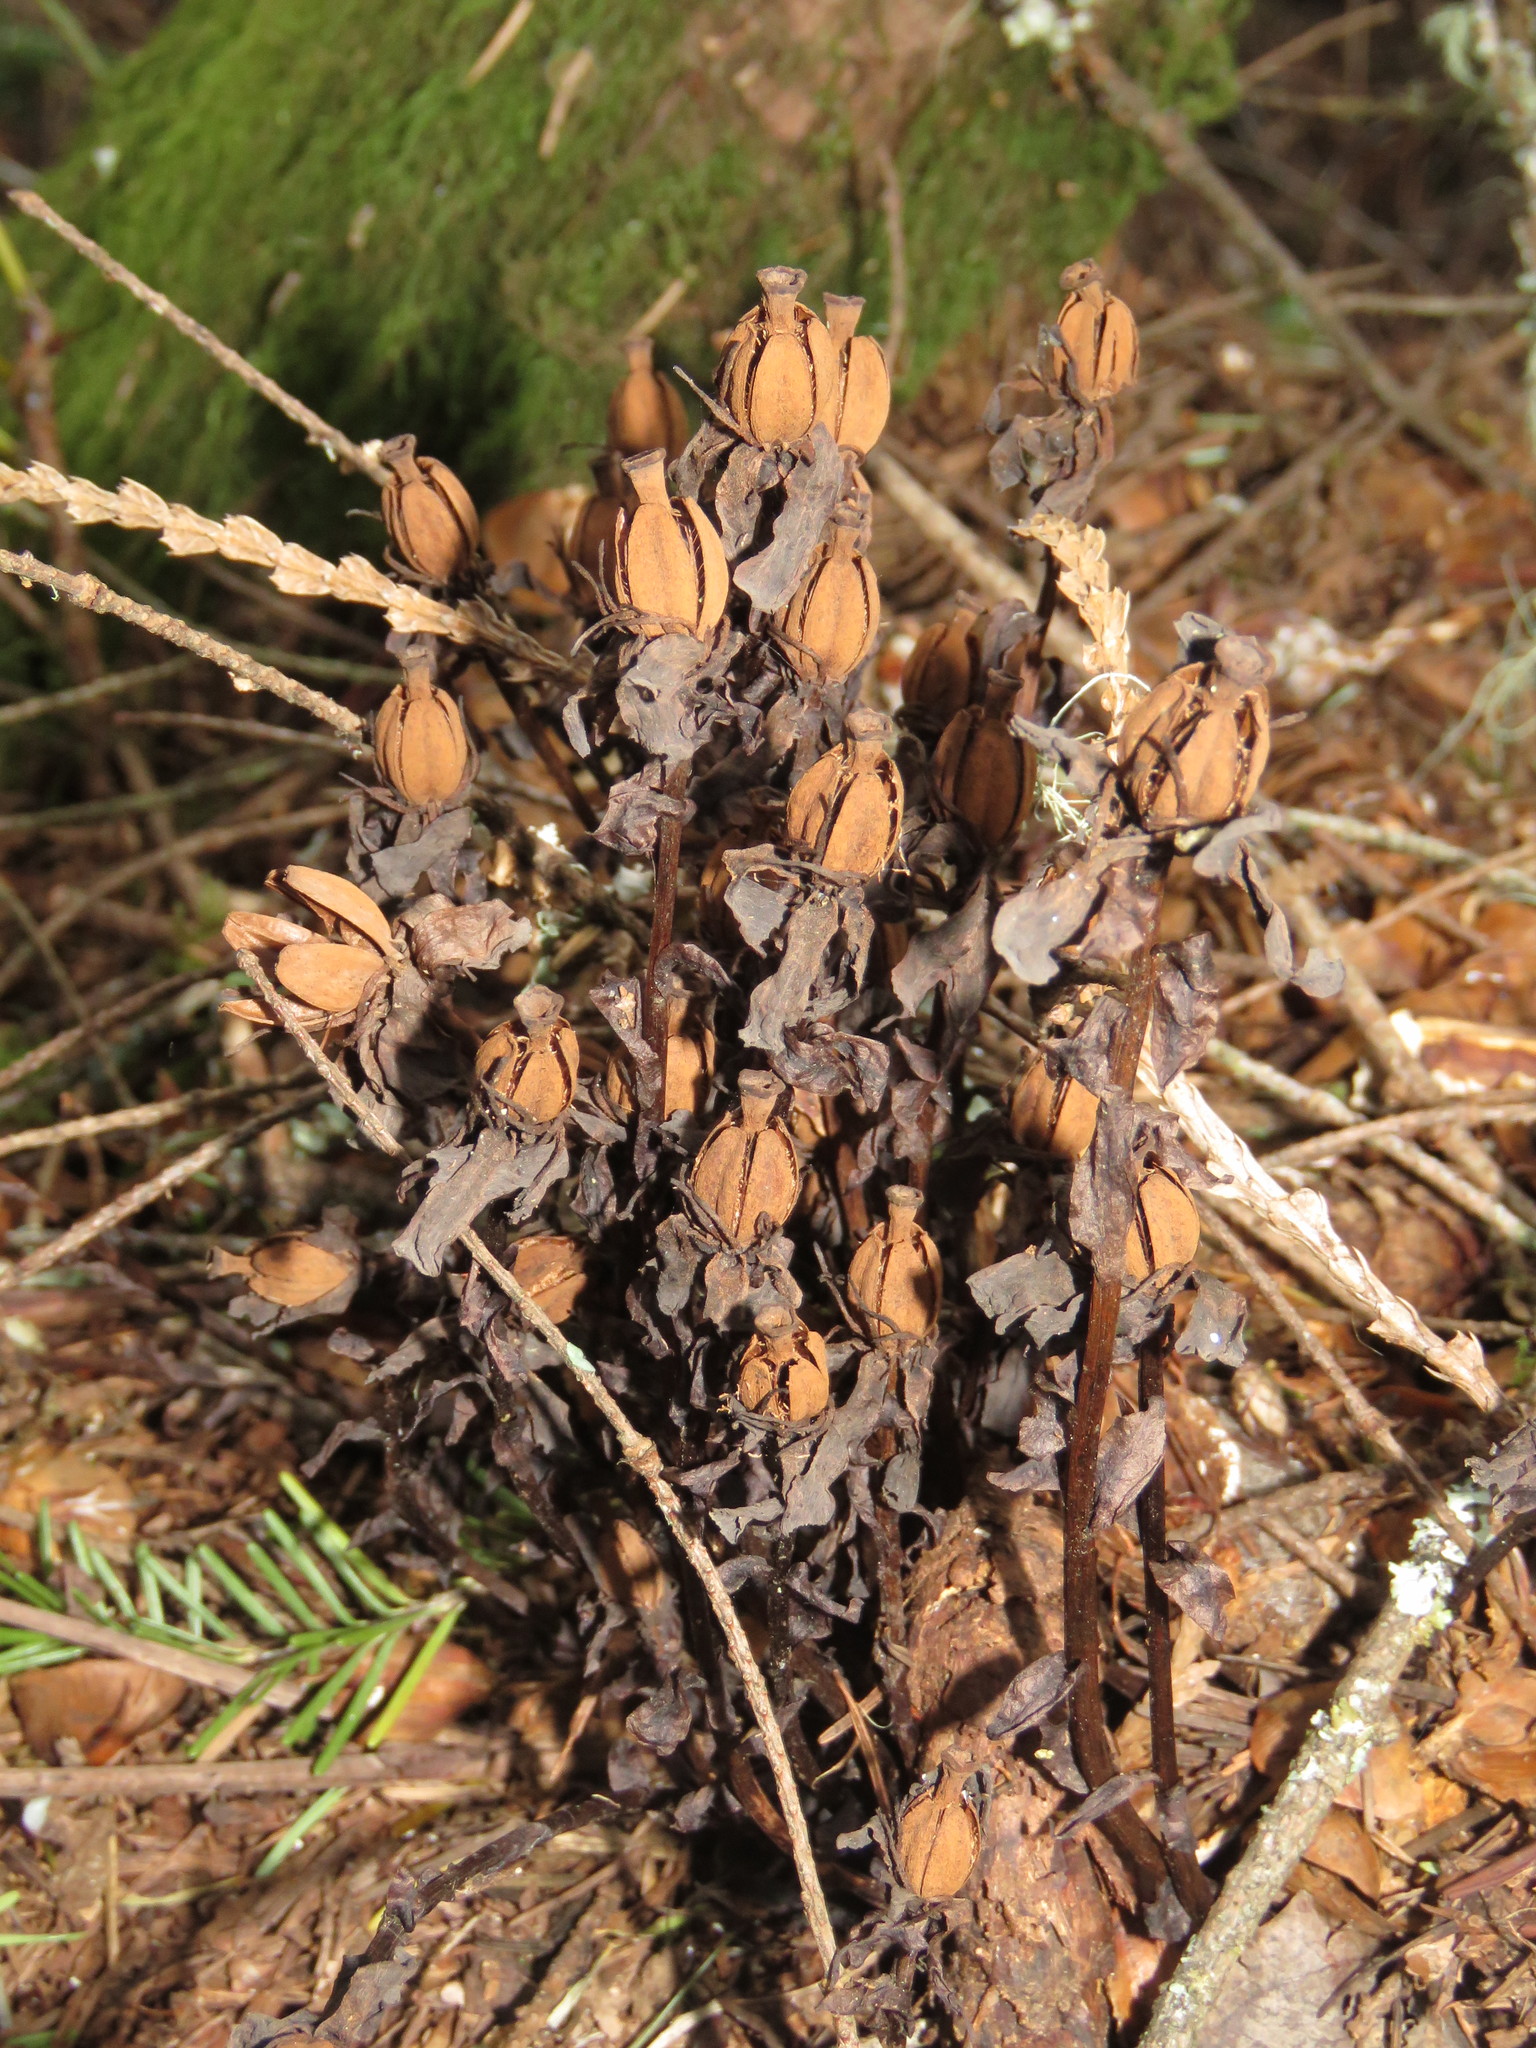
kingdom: Plantae
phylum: Tracheophyta
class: Magnoliopsida
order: Ericales
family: Ericaceae
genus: Monotropa
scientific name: Monotropa uniflora
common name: Convulsion root
